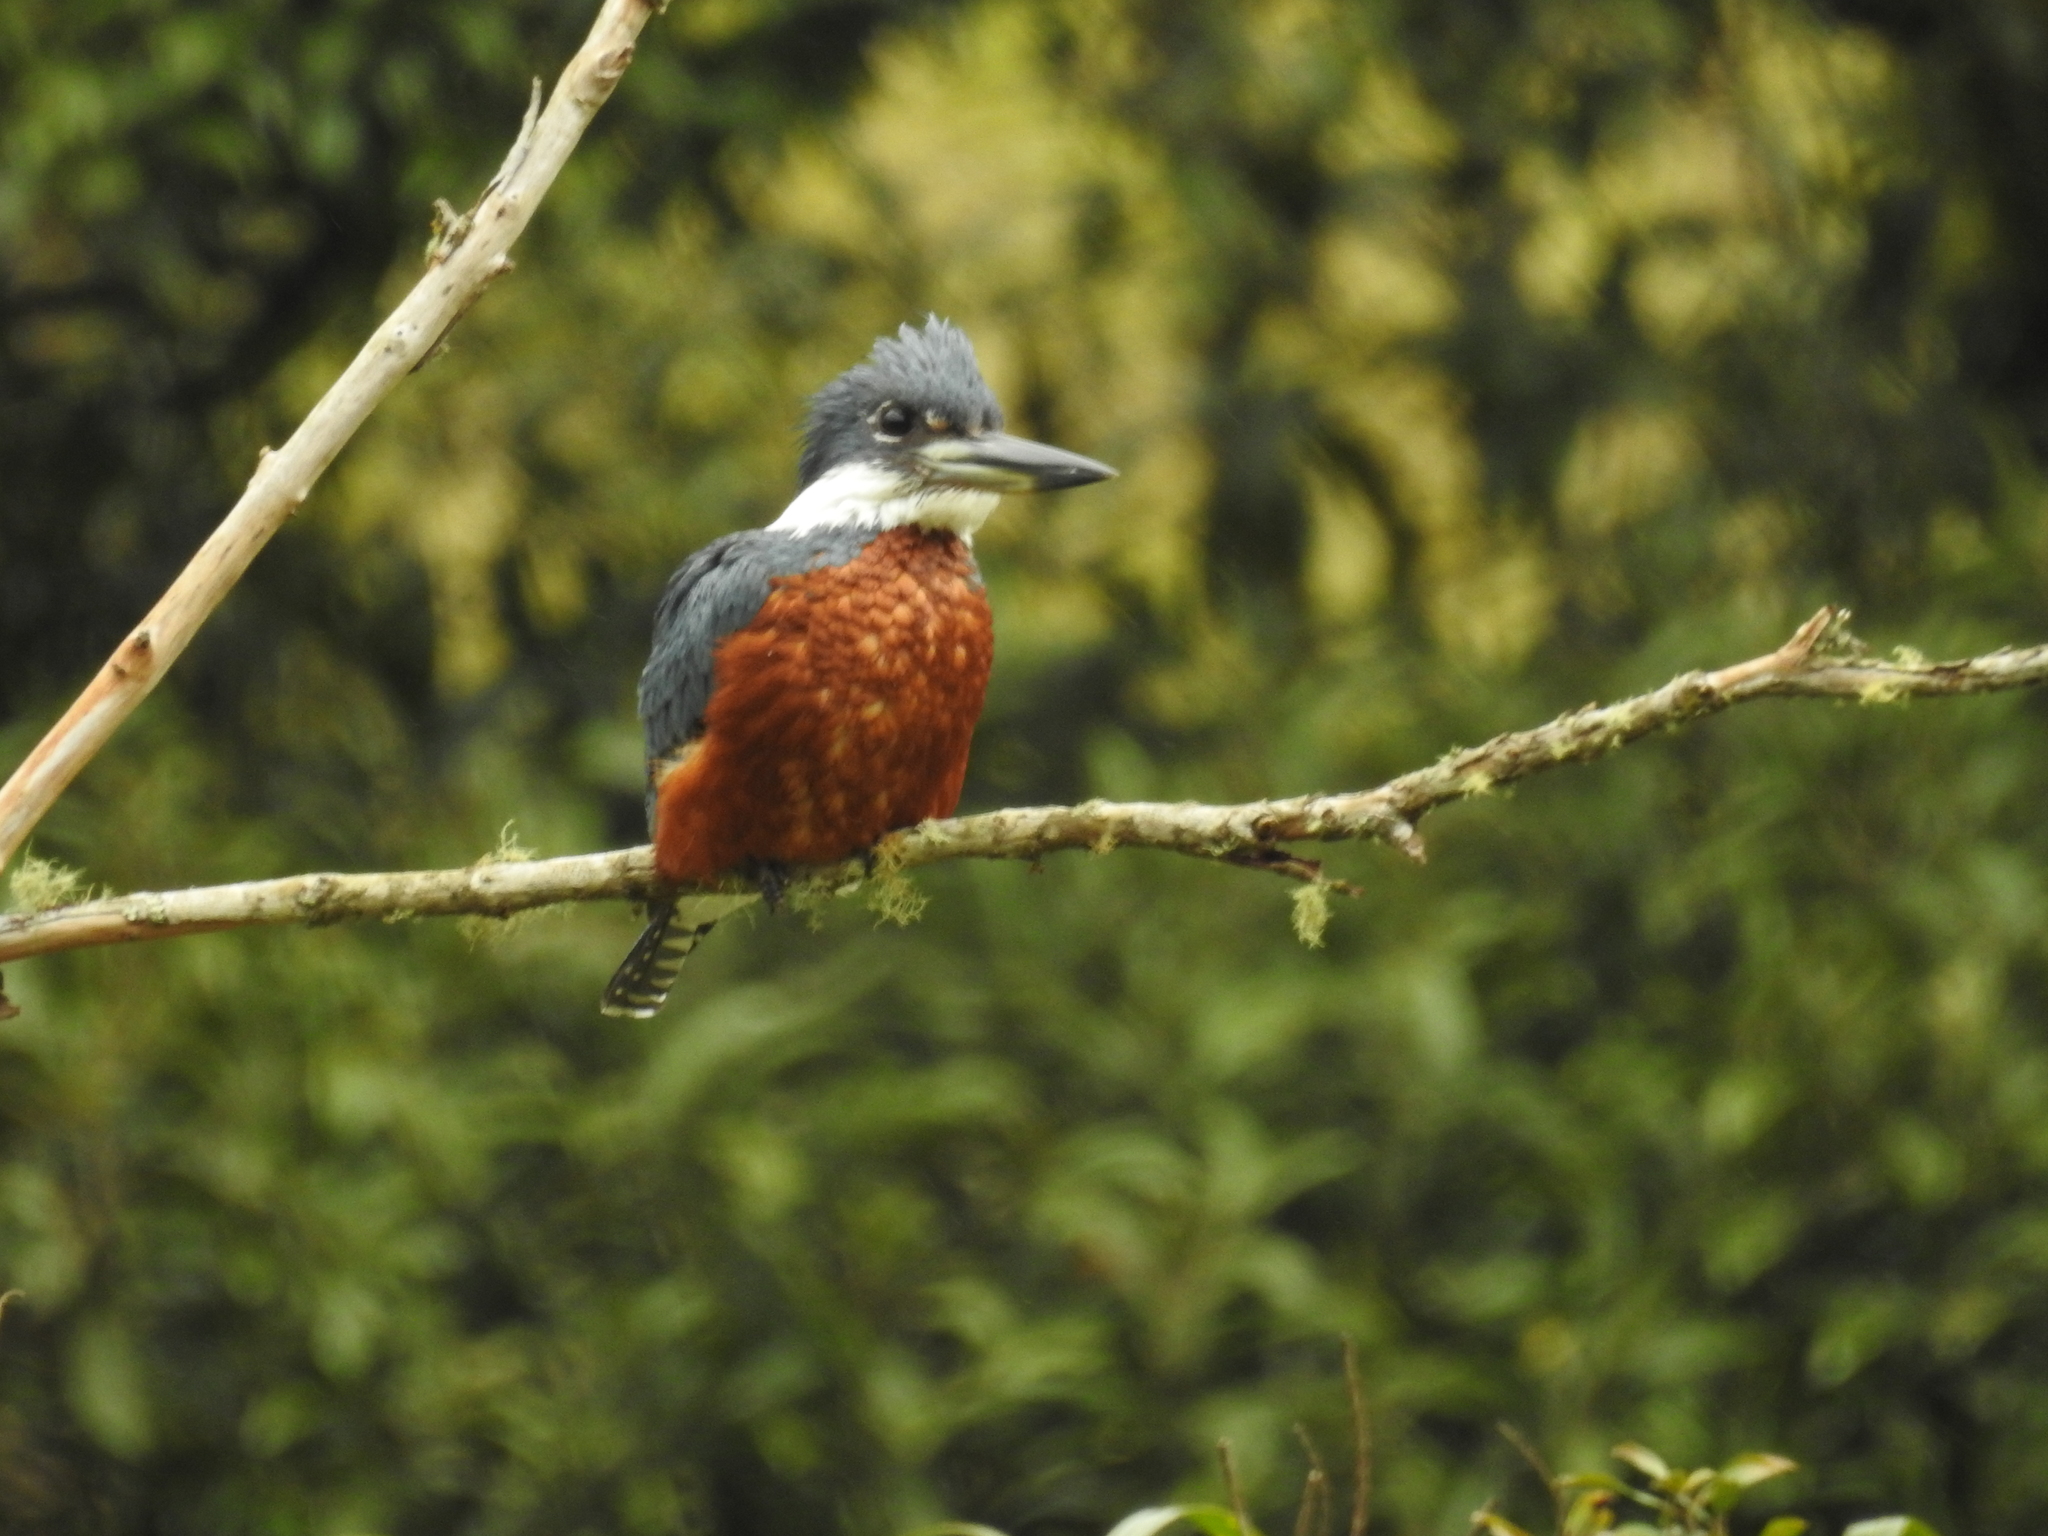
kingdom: Animalia
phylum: Chordata
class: Aves
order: Coraciiformes
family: Alcedinidae
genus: Megaceryle
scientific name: Megaceryle torquata
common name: Ringed kingfisher
